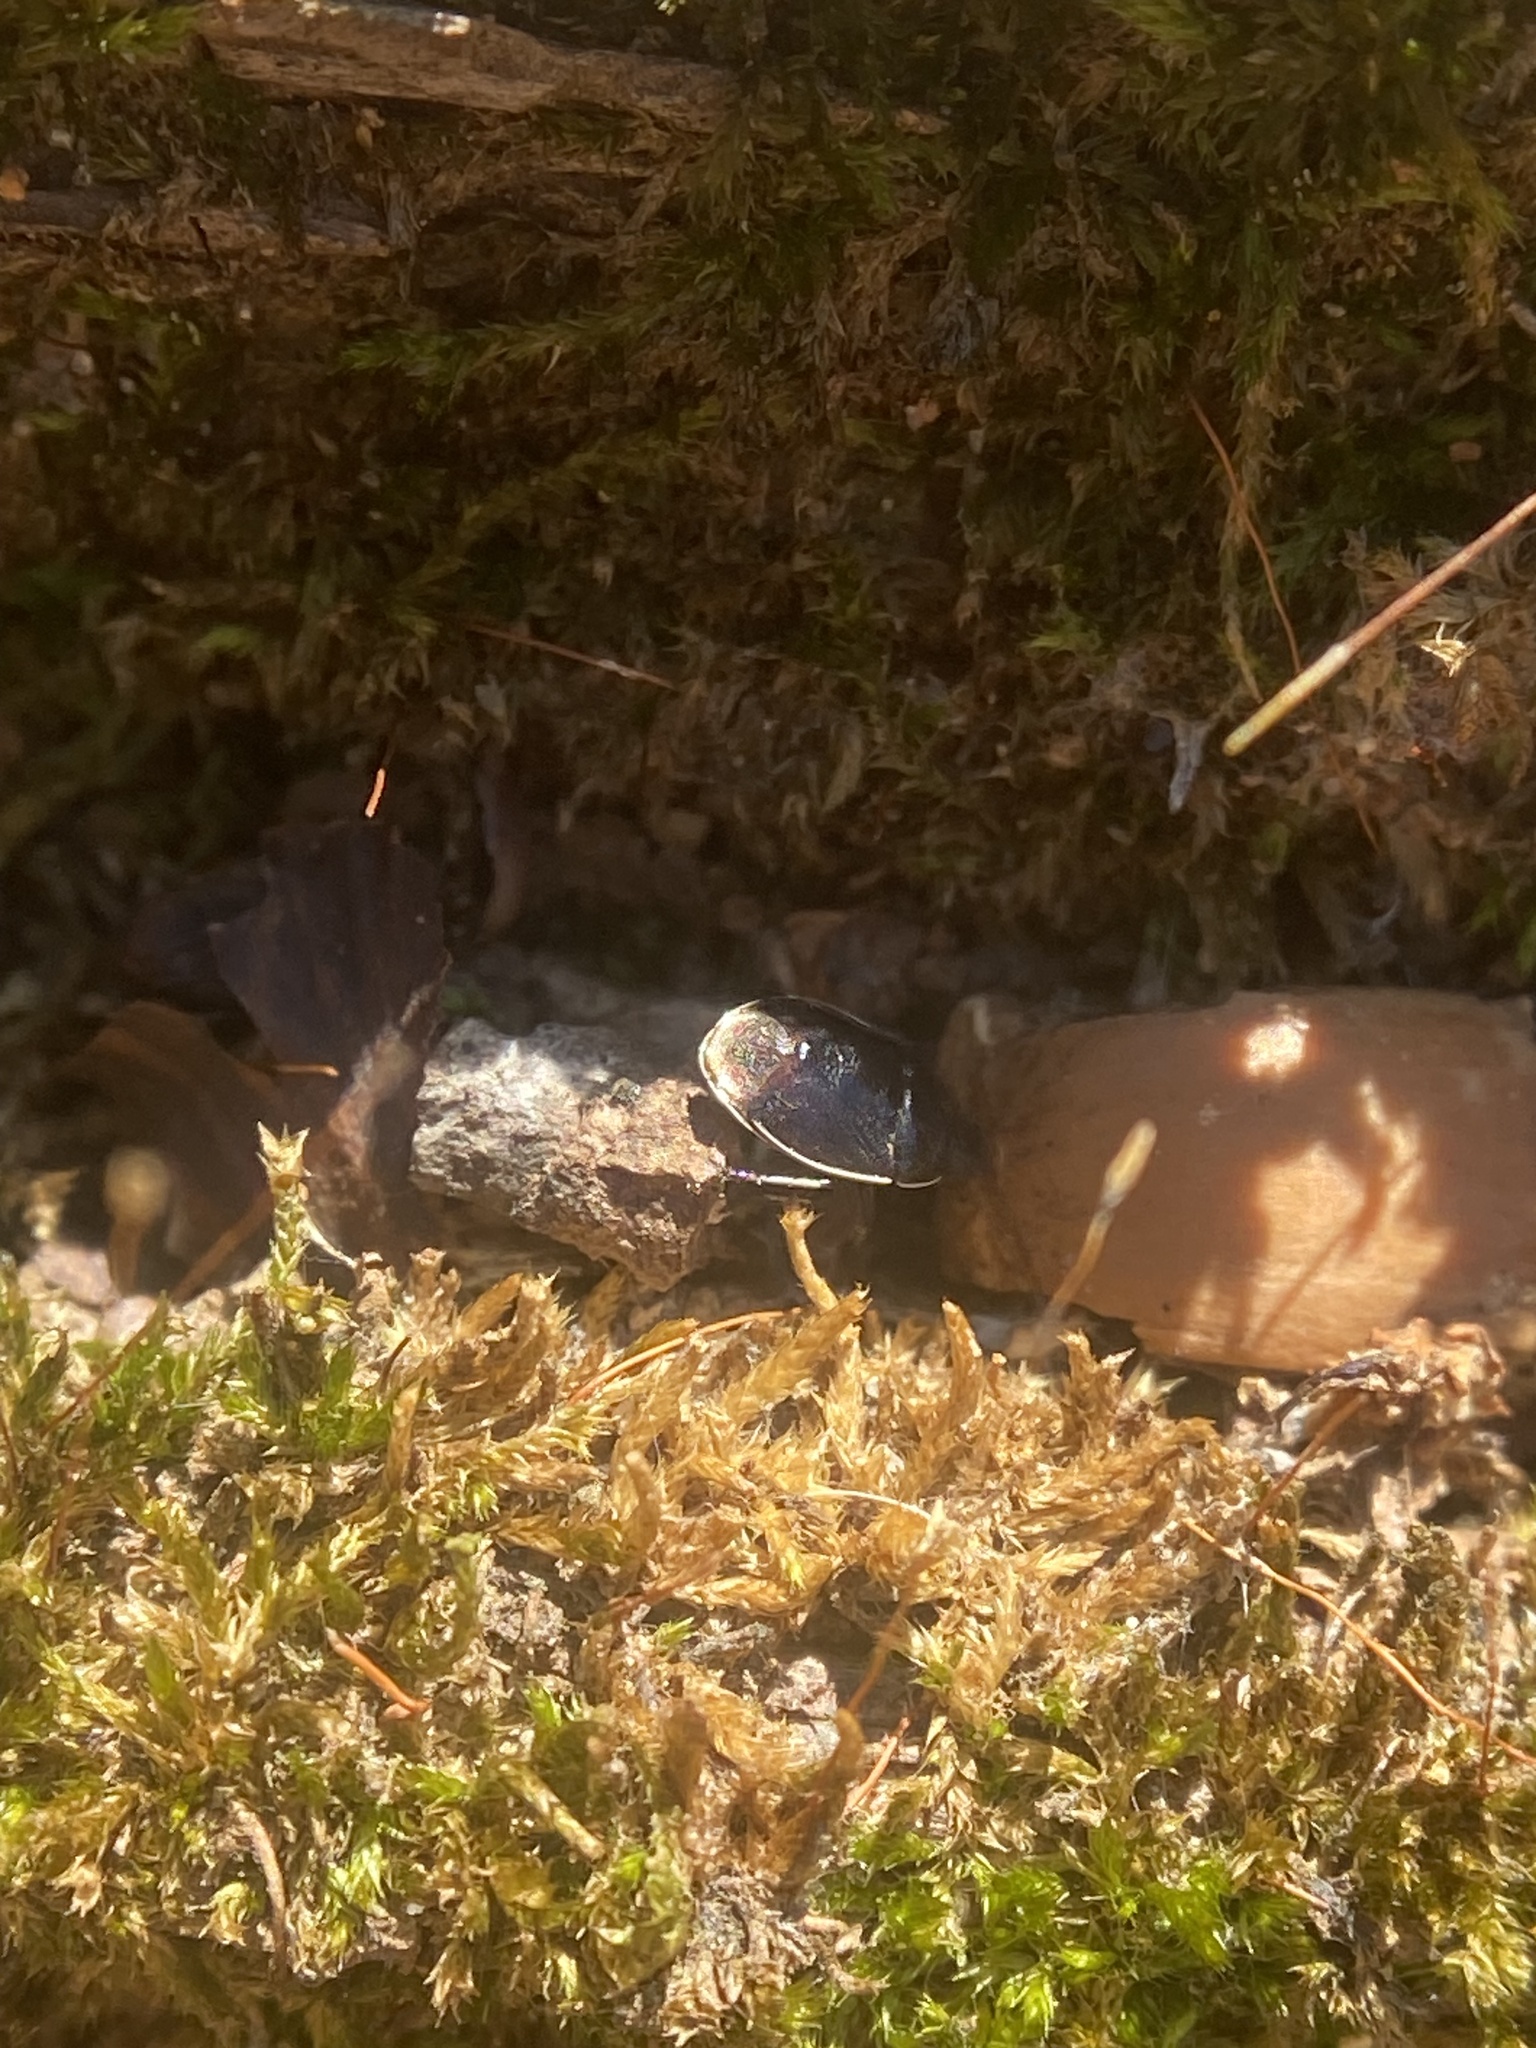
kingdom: Animalia
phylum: Arthropoda
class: Insecta
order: Hemiptera
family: Cydnidae
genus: Sehirus
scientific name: Sehirus cinctus
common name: White-margined burrower bug
